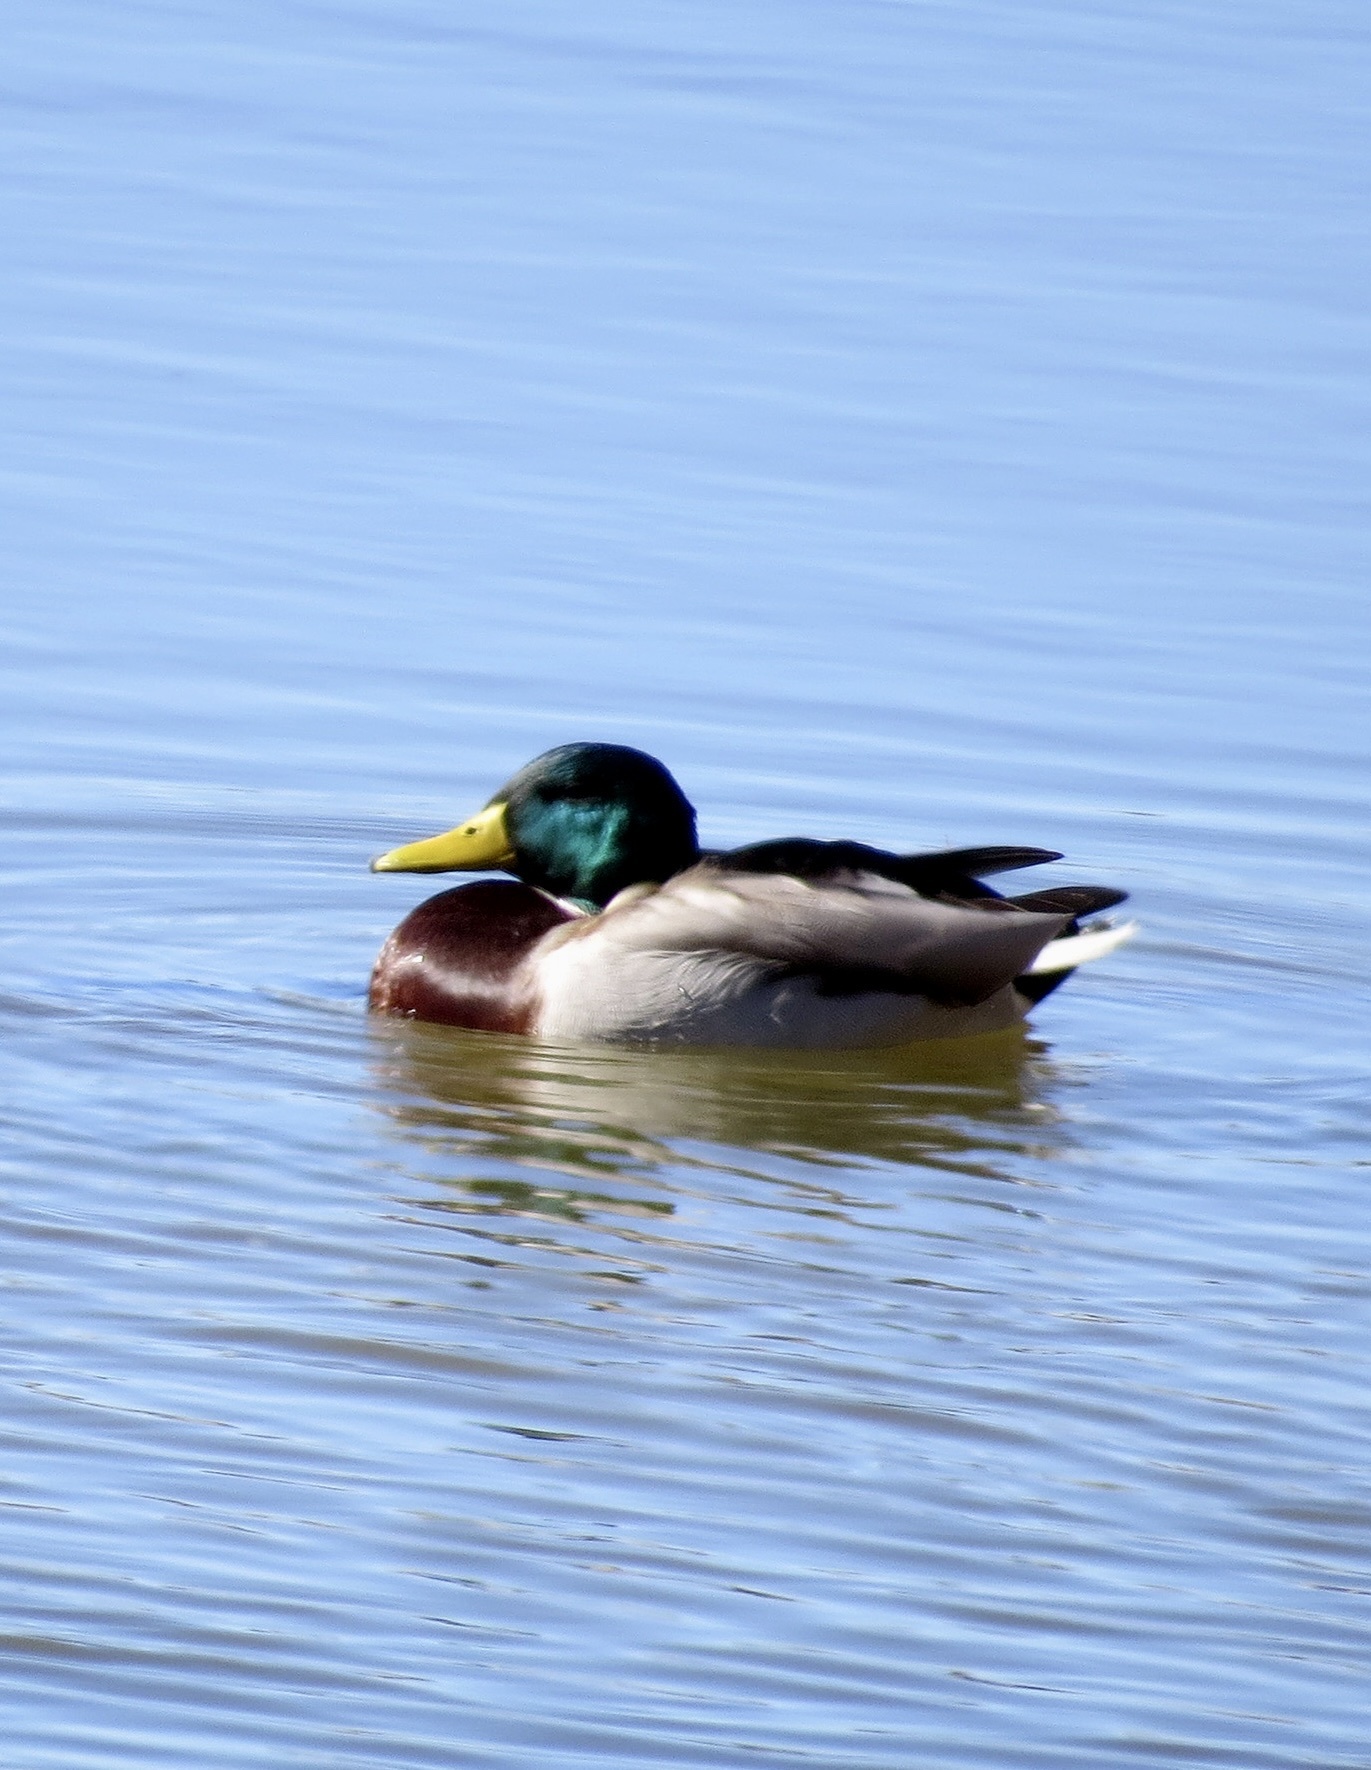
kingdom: Animalia
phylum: Chordata
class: Aves
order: Anseriformes
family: Anatidae
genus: Anas
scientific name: Anas platyrhynchos
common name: Mallard
